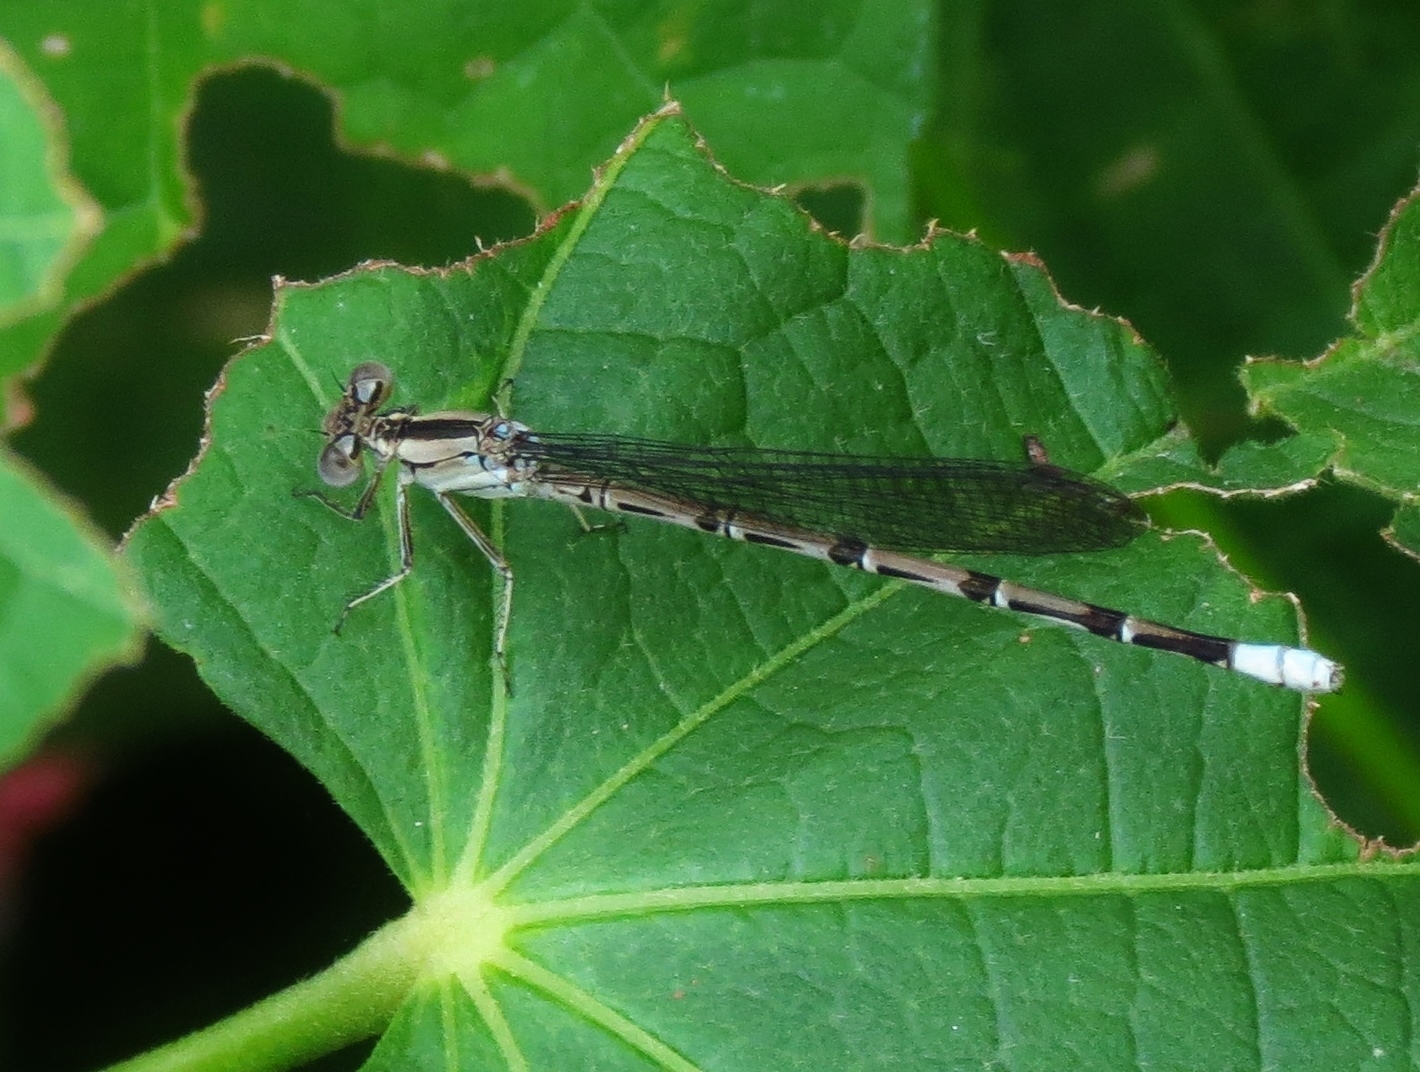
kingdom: Animalia
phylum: Arthropoda
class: Insecta
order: Odonata
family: Coenagrionidae
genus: Argia
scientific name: Argia funebris
